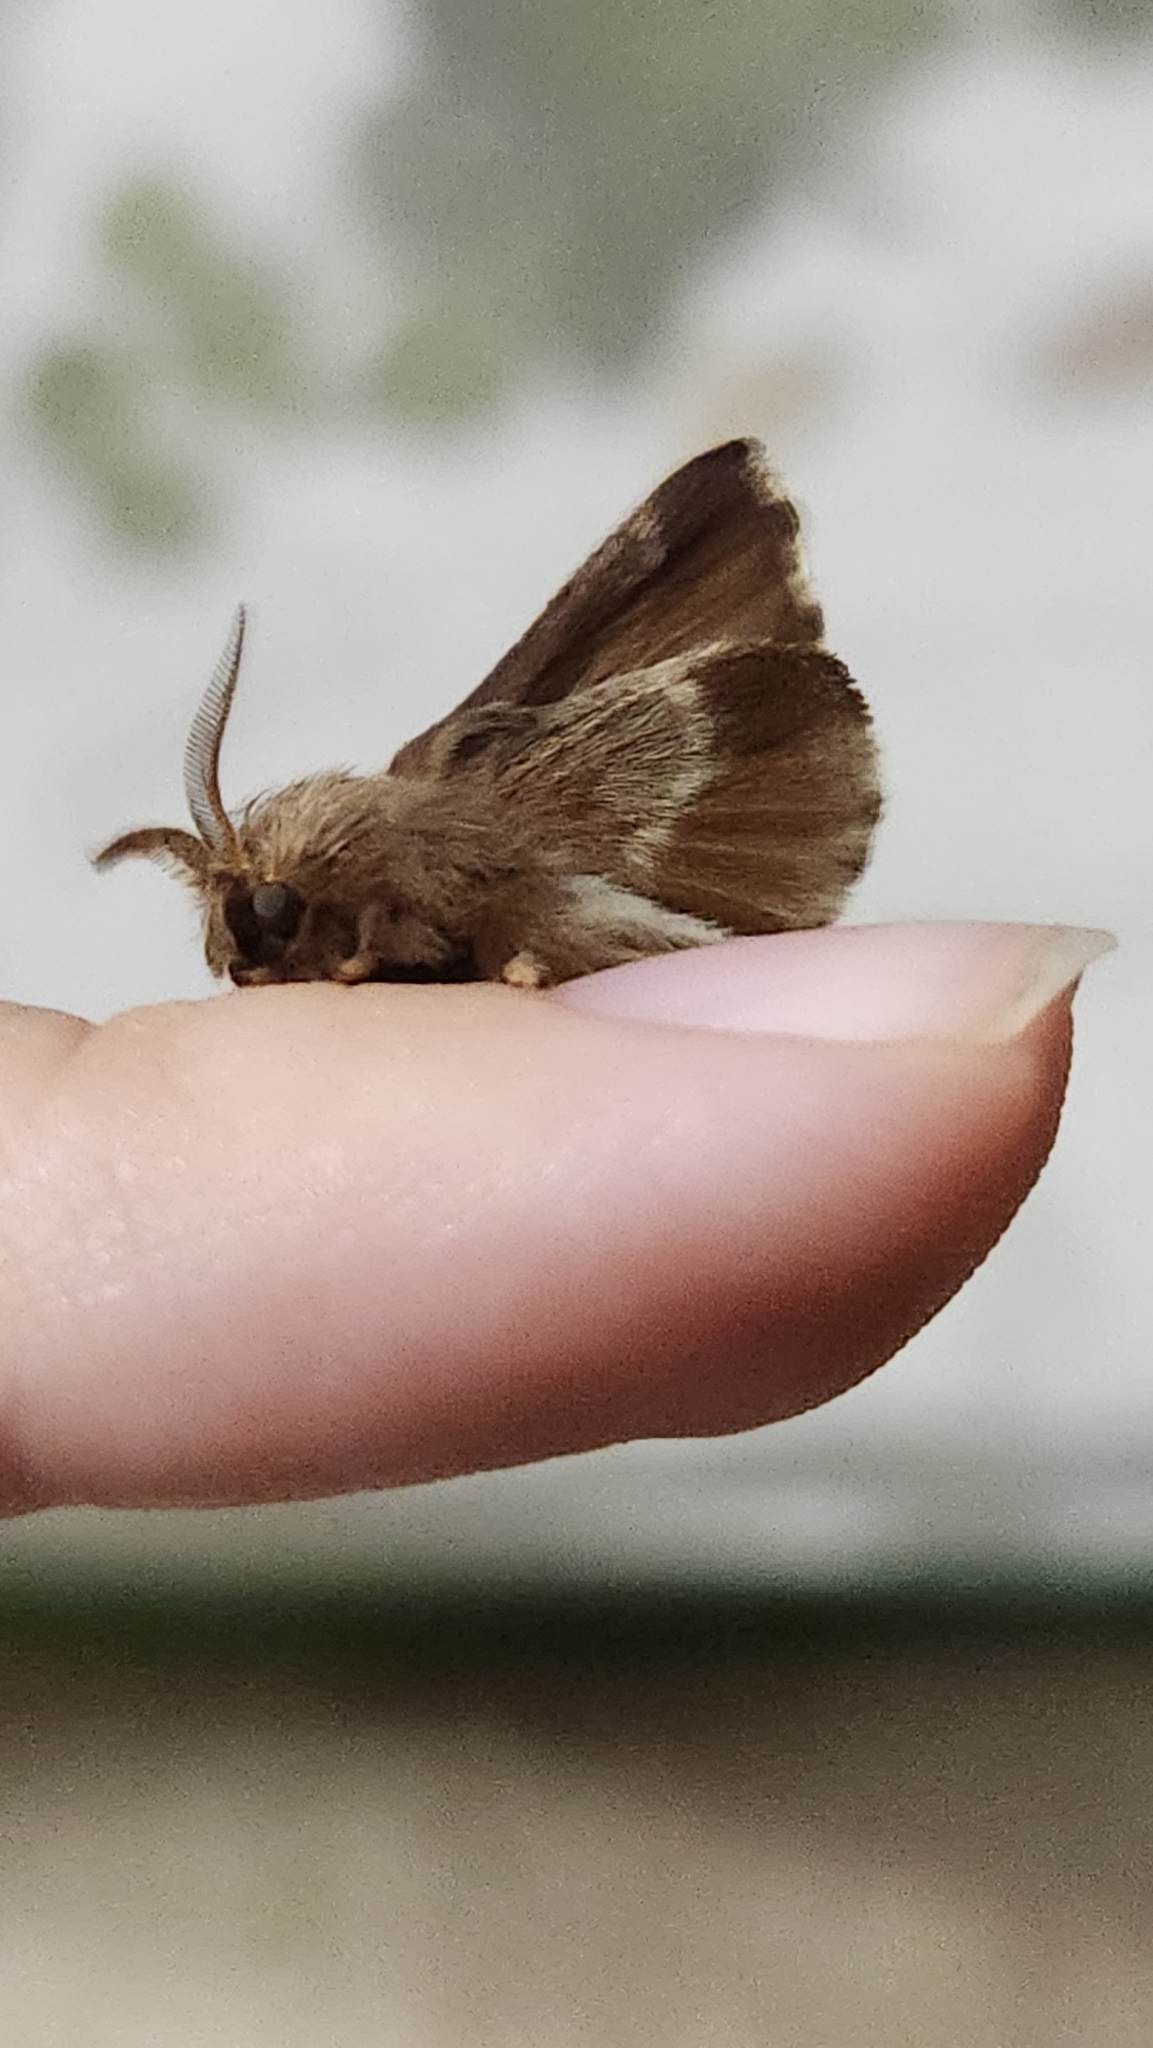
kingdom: Animalia
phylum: Arthropoda
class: Insecta
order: Lepidoptera
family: Lasiocampidae
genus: Malacosoma
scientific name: Malacosoma americana
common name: Eastern tent caterpillar moth
